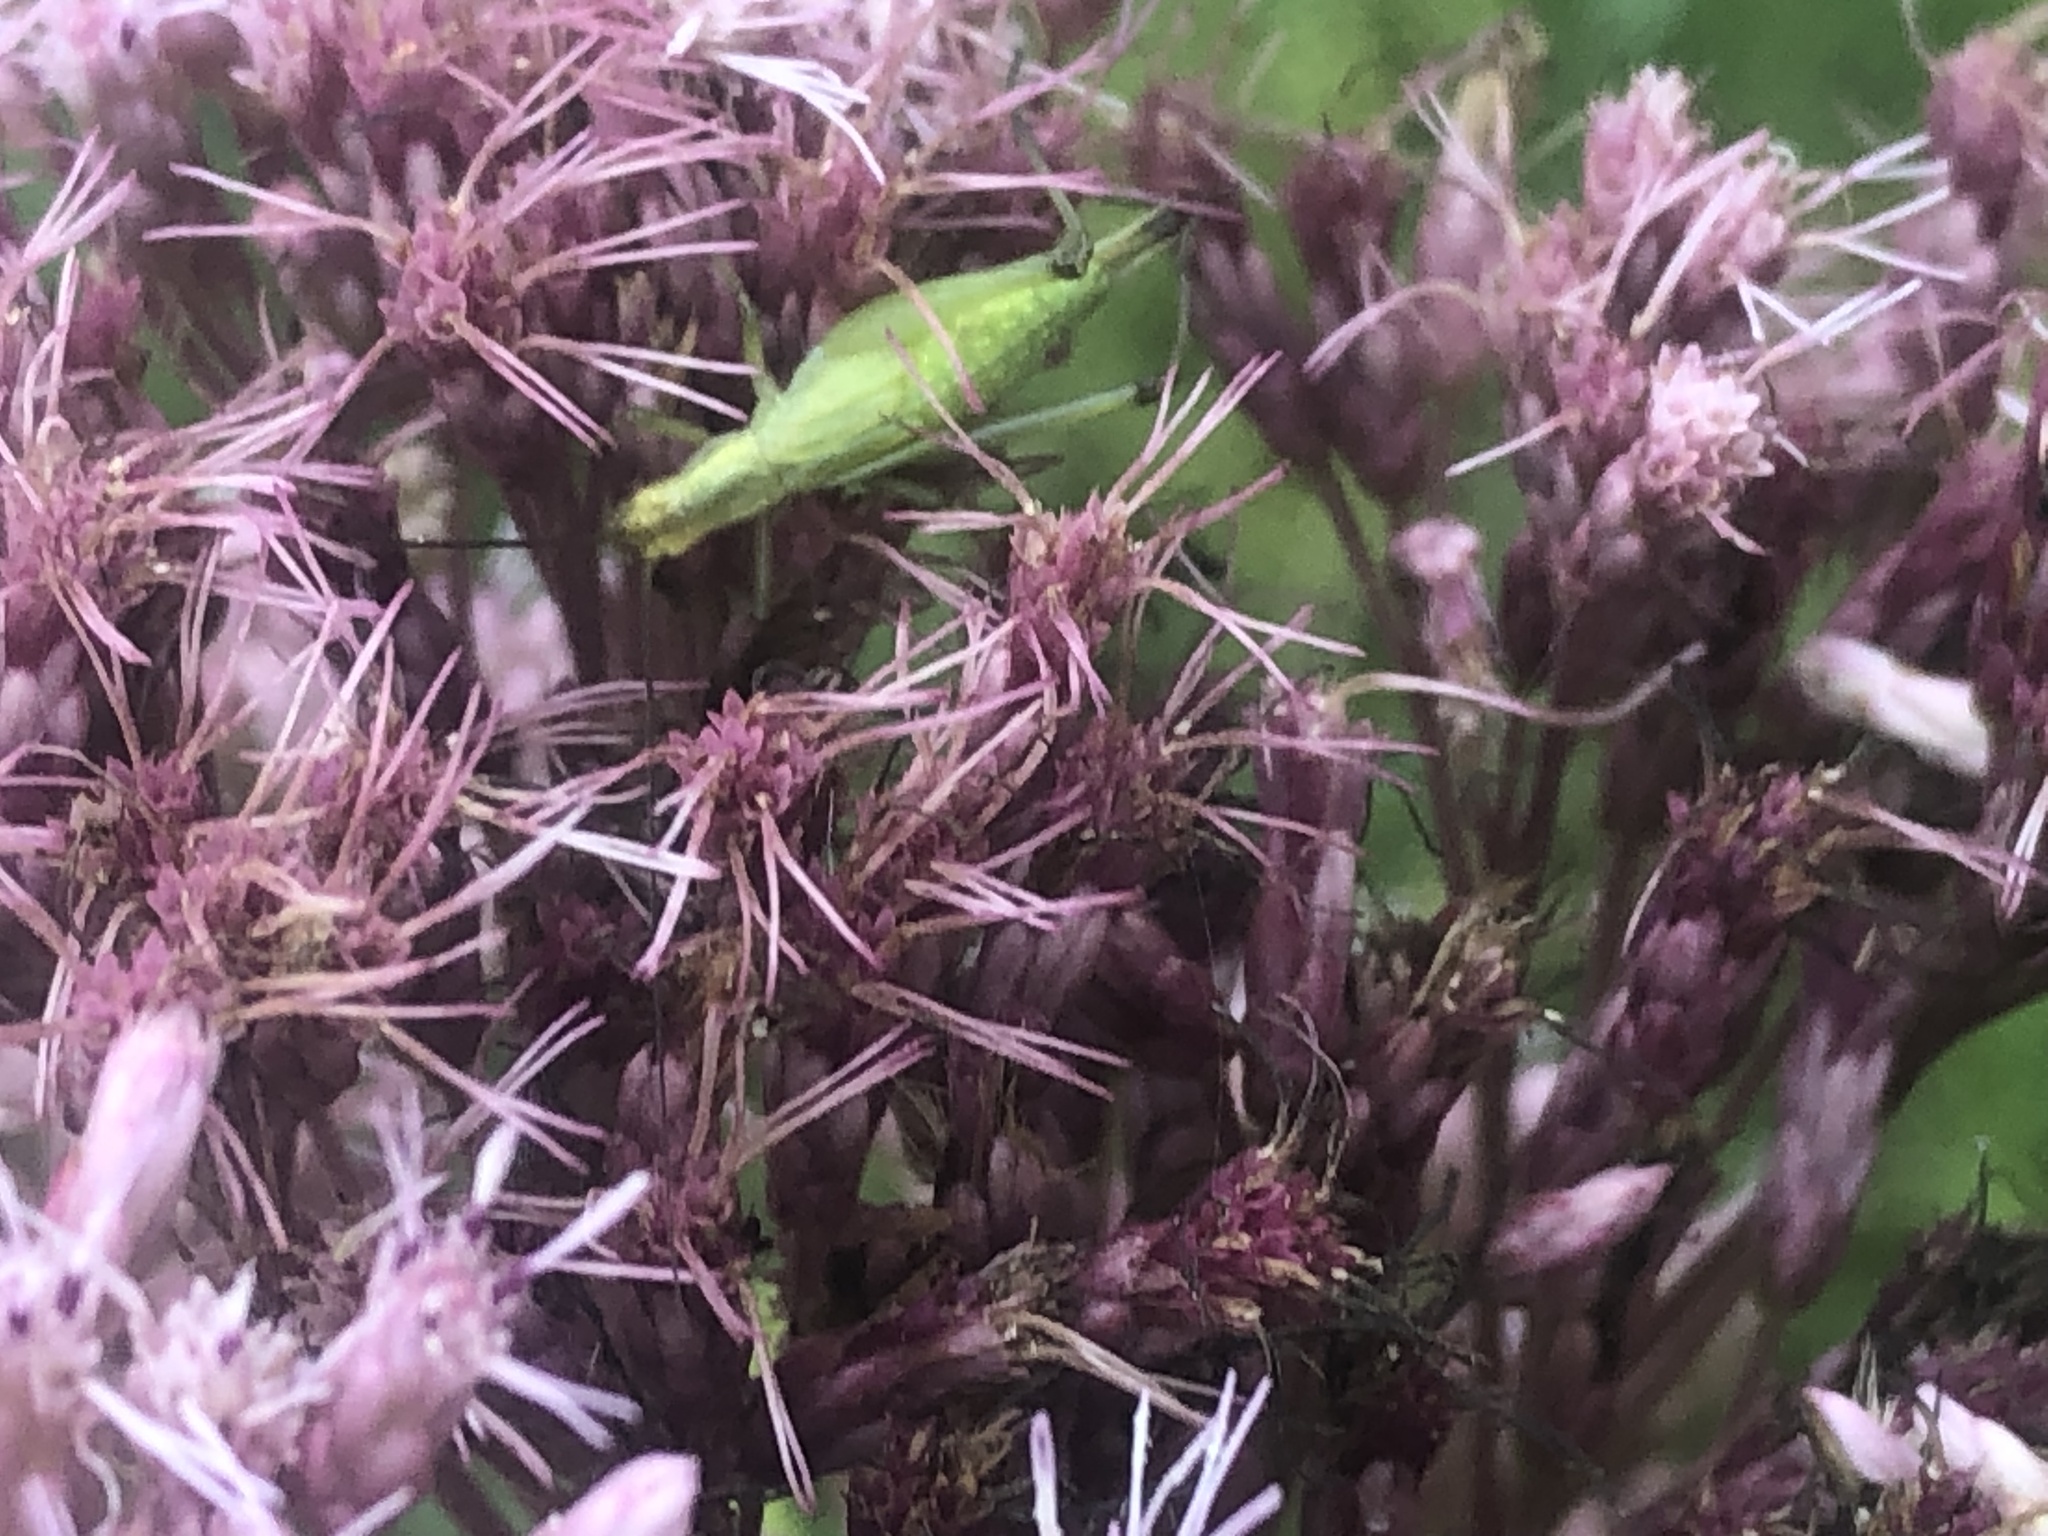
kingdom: Animalia
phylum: Arthropoda
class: Insecta
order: Orthoptera
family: Gryllidae
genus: Oecanthus
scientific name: Oecanthus nigricornis
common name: Black-horned tree cricket
